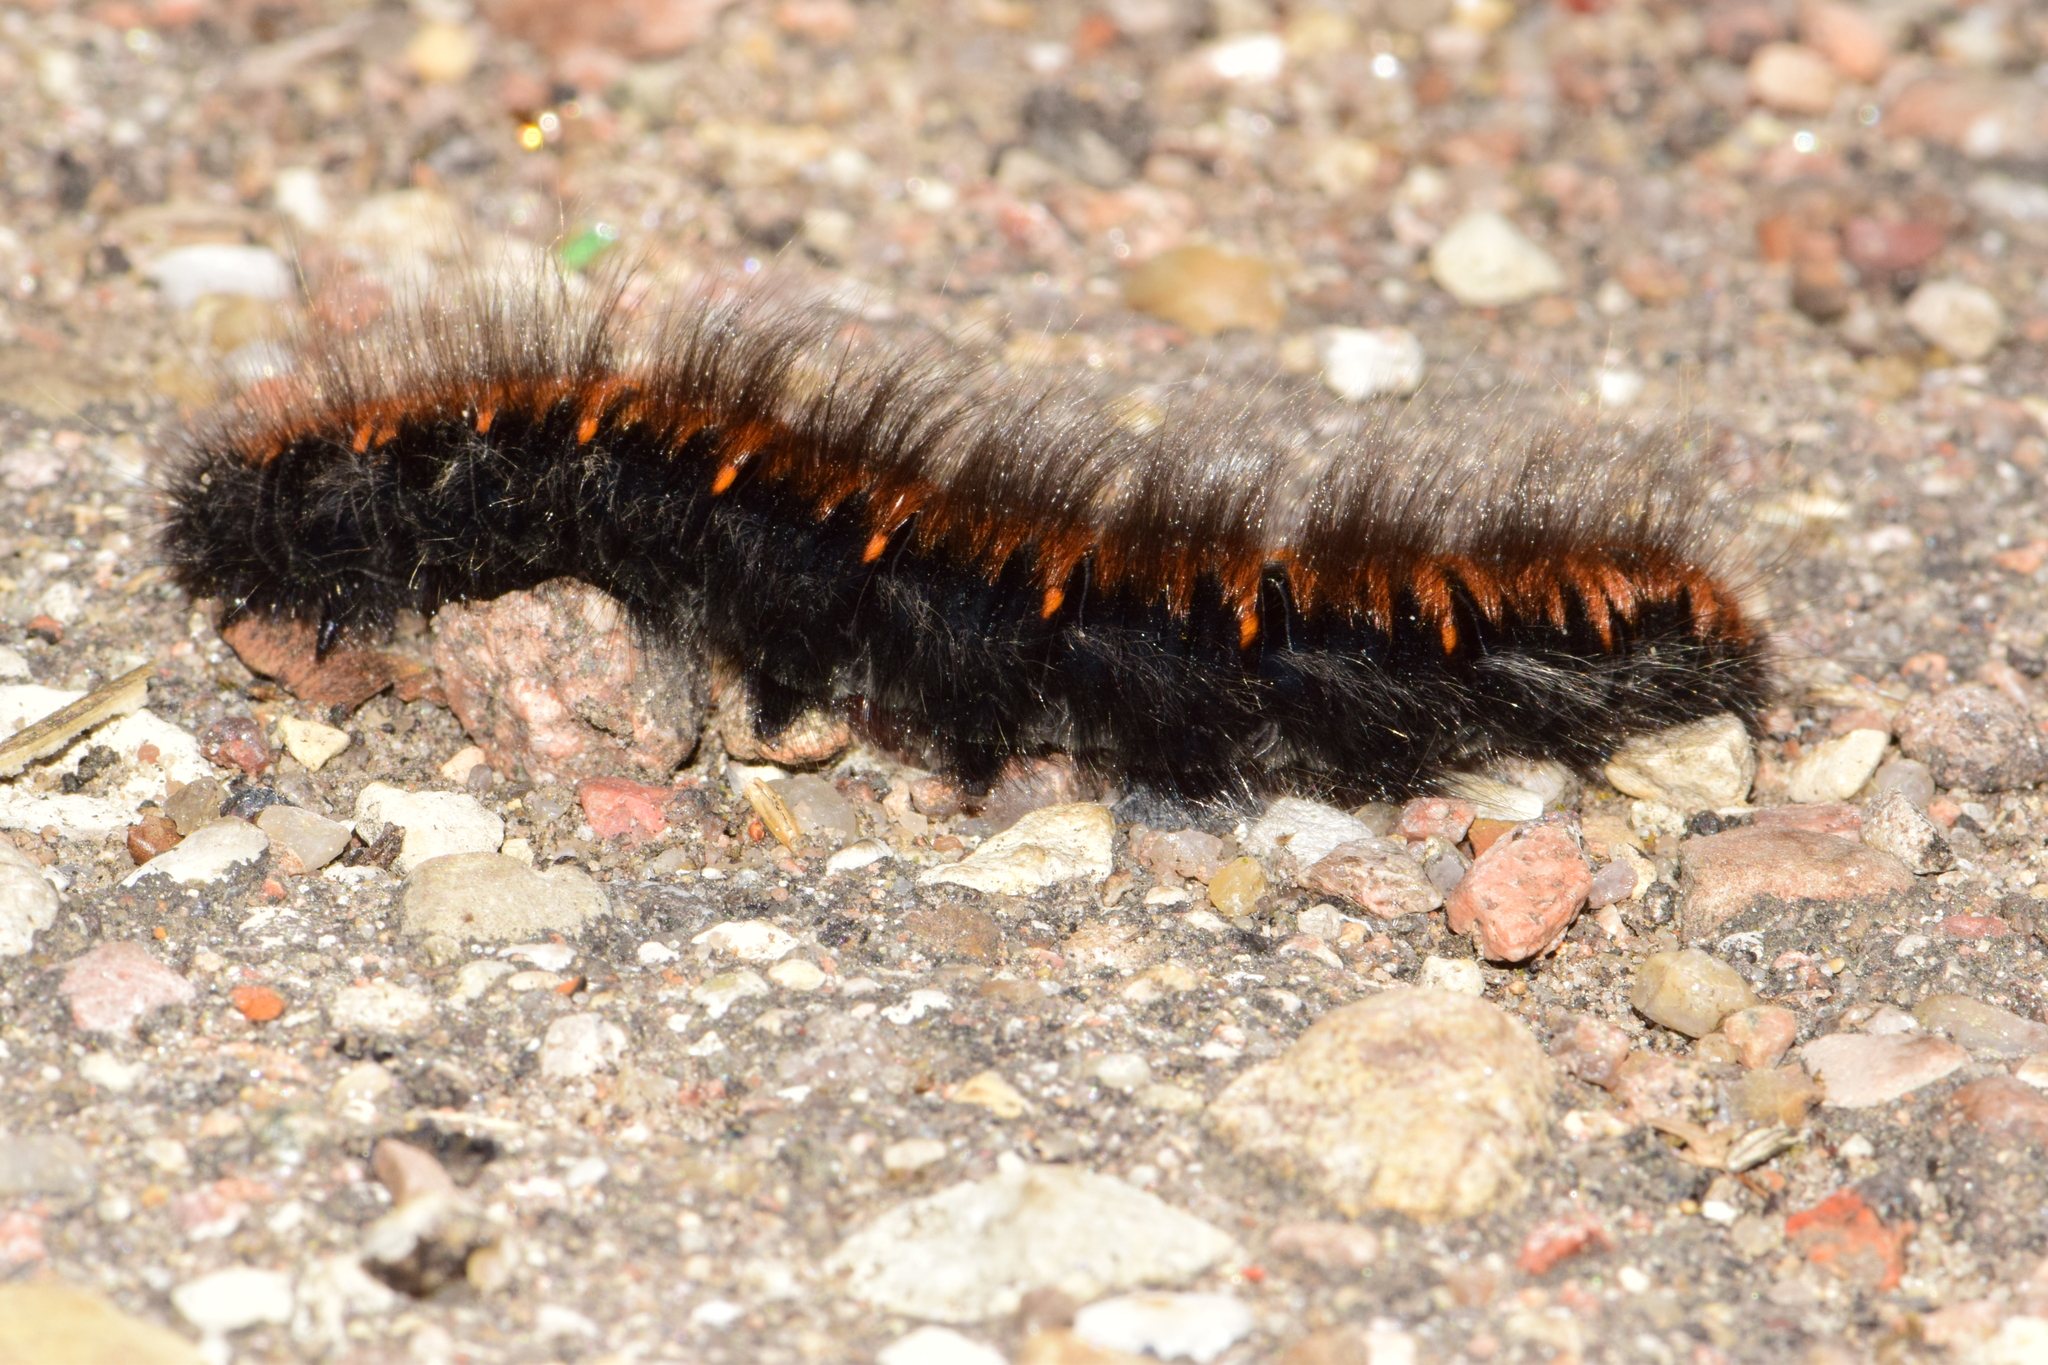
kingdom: Animalia
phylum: Arthropoda
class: Insecta
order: Lepidoptera
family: Lasiocampidae
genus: Macrothylacia
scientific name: Macrothylacia rubi
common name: Fox moth
